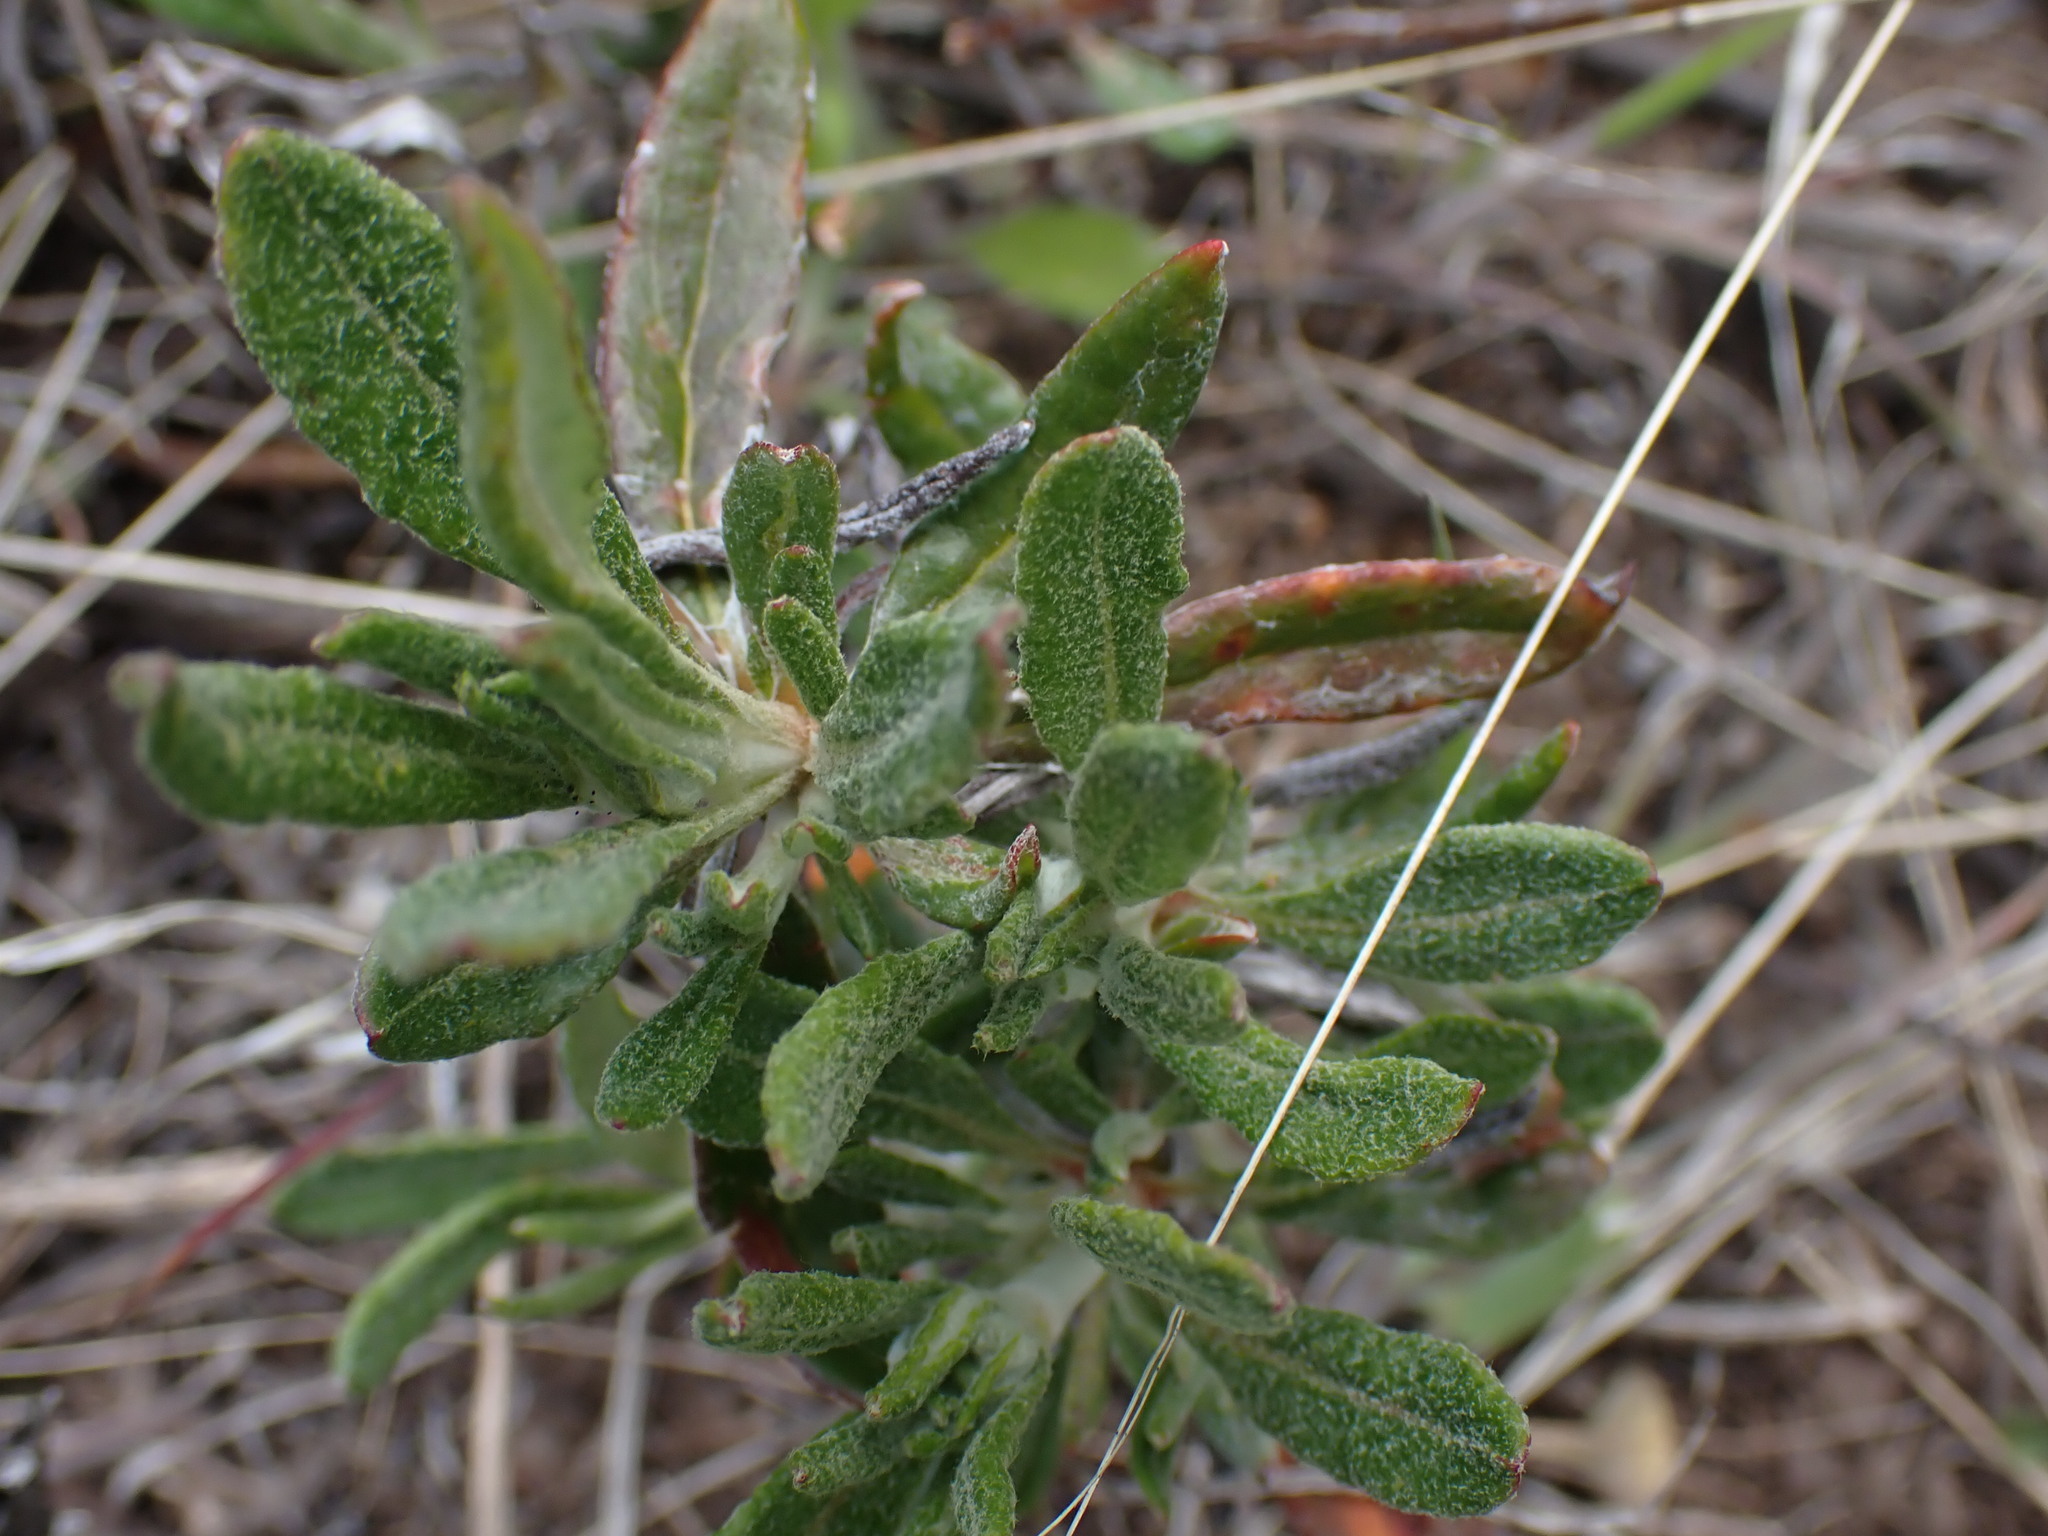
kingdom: Plantae
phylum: Tracheophyta
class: Magnoliopsida
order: Caryophyllales
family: Polygonaceae
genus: Eriogonum
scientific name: Eriogonum heracleoides
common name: Wyeth's buckwheat
